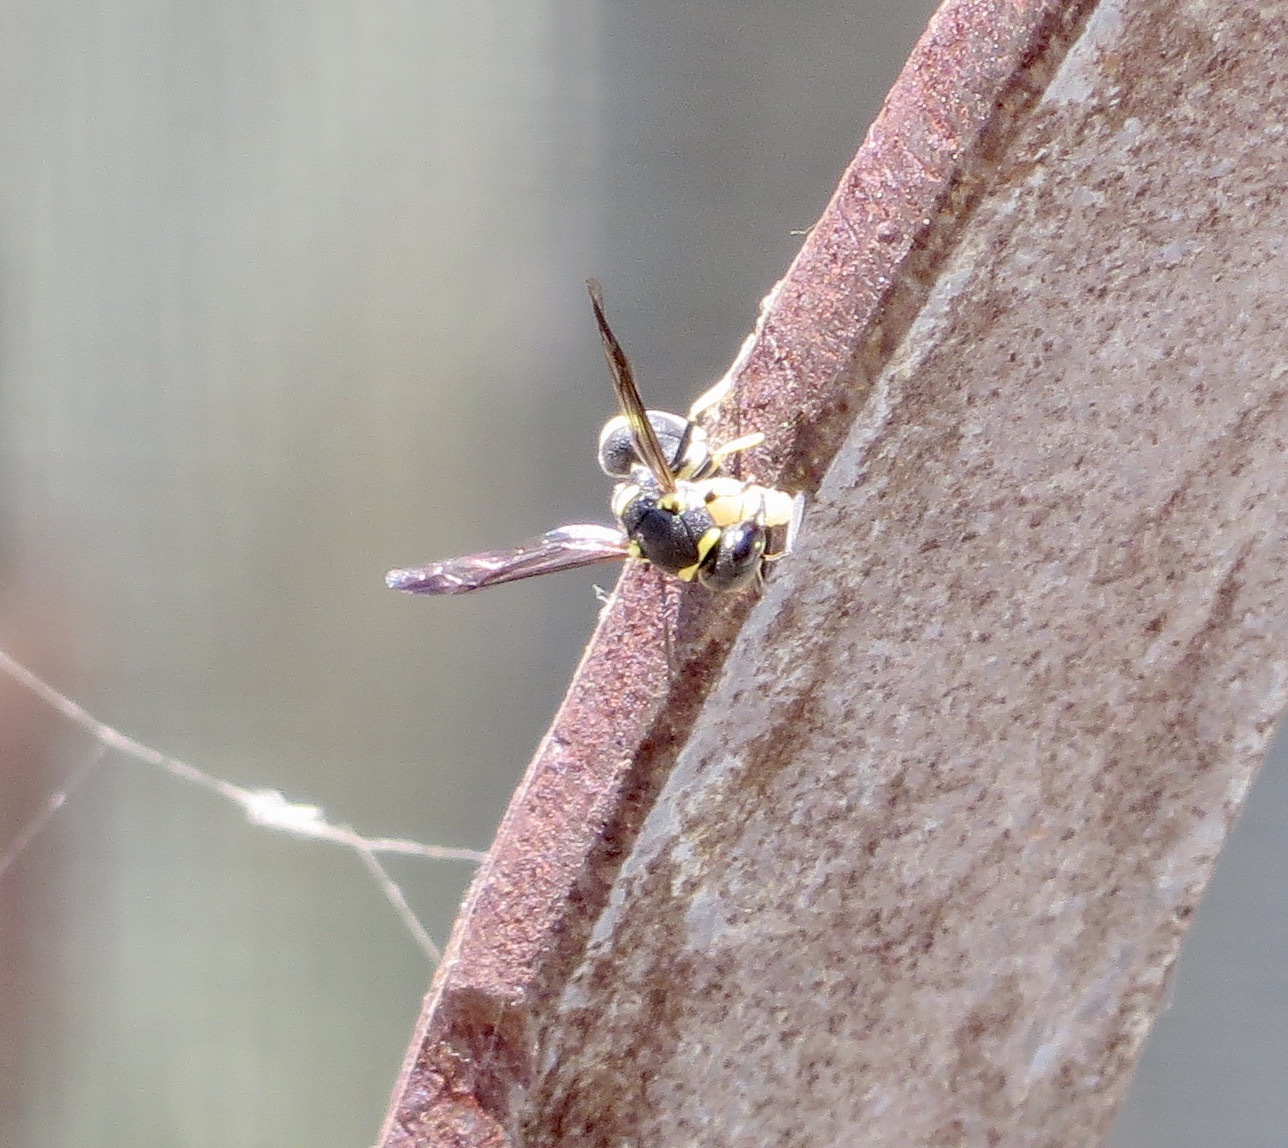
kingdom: Animalia
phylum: Arthropoda
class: Insecta
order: Hymenoptera
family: Eumenidae
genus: Parancistrocerus
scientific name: Parancistrocerus declivatus
